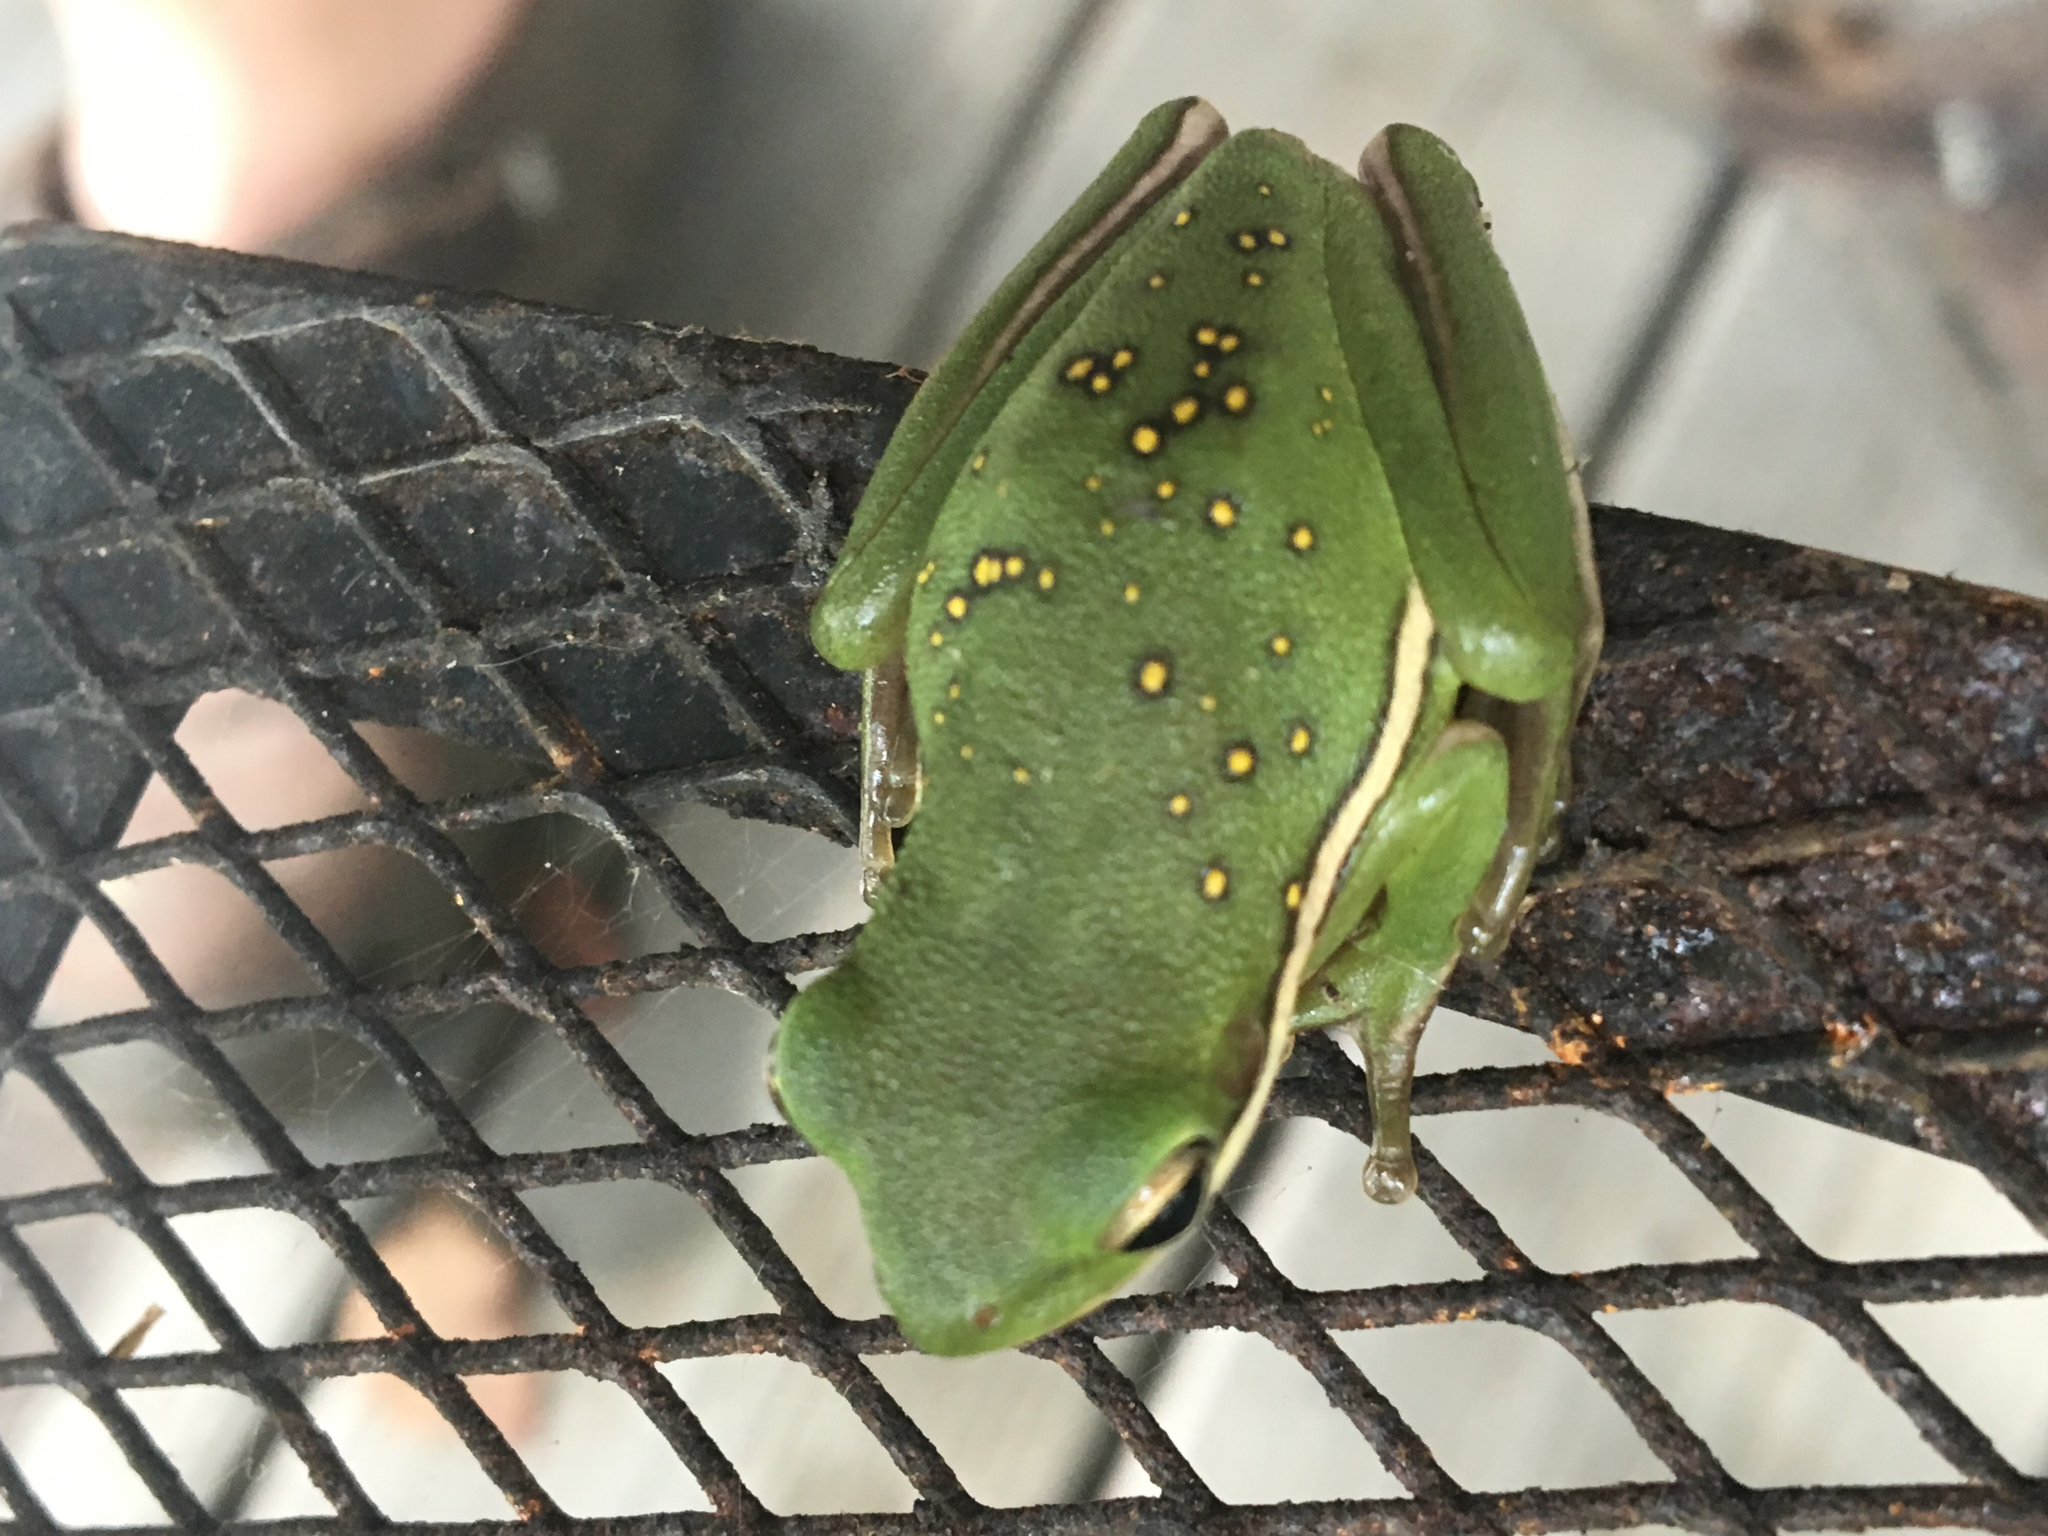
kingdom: Animalia
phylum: Chordata
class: Amphibia
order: Anura
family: Hylidae
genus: Dryophytes
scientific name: Dryophytes cinereus
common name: Green treefrog
